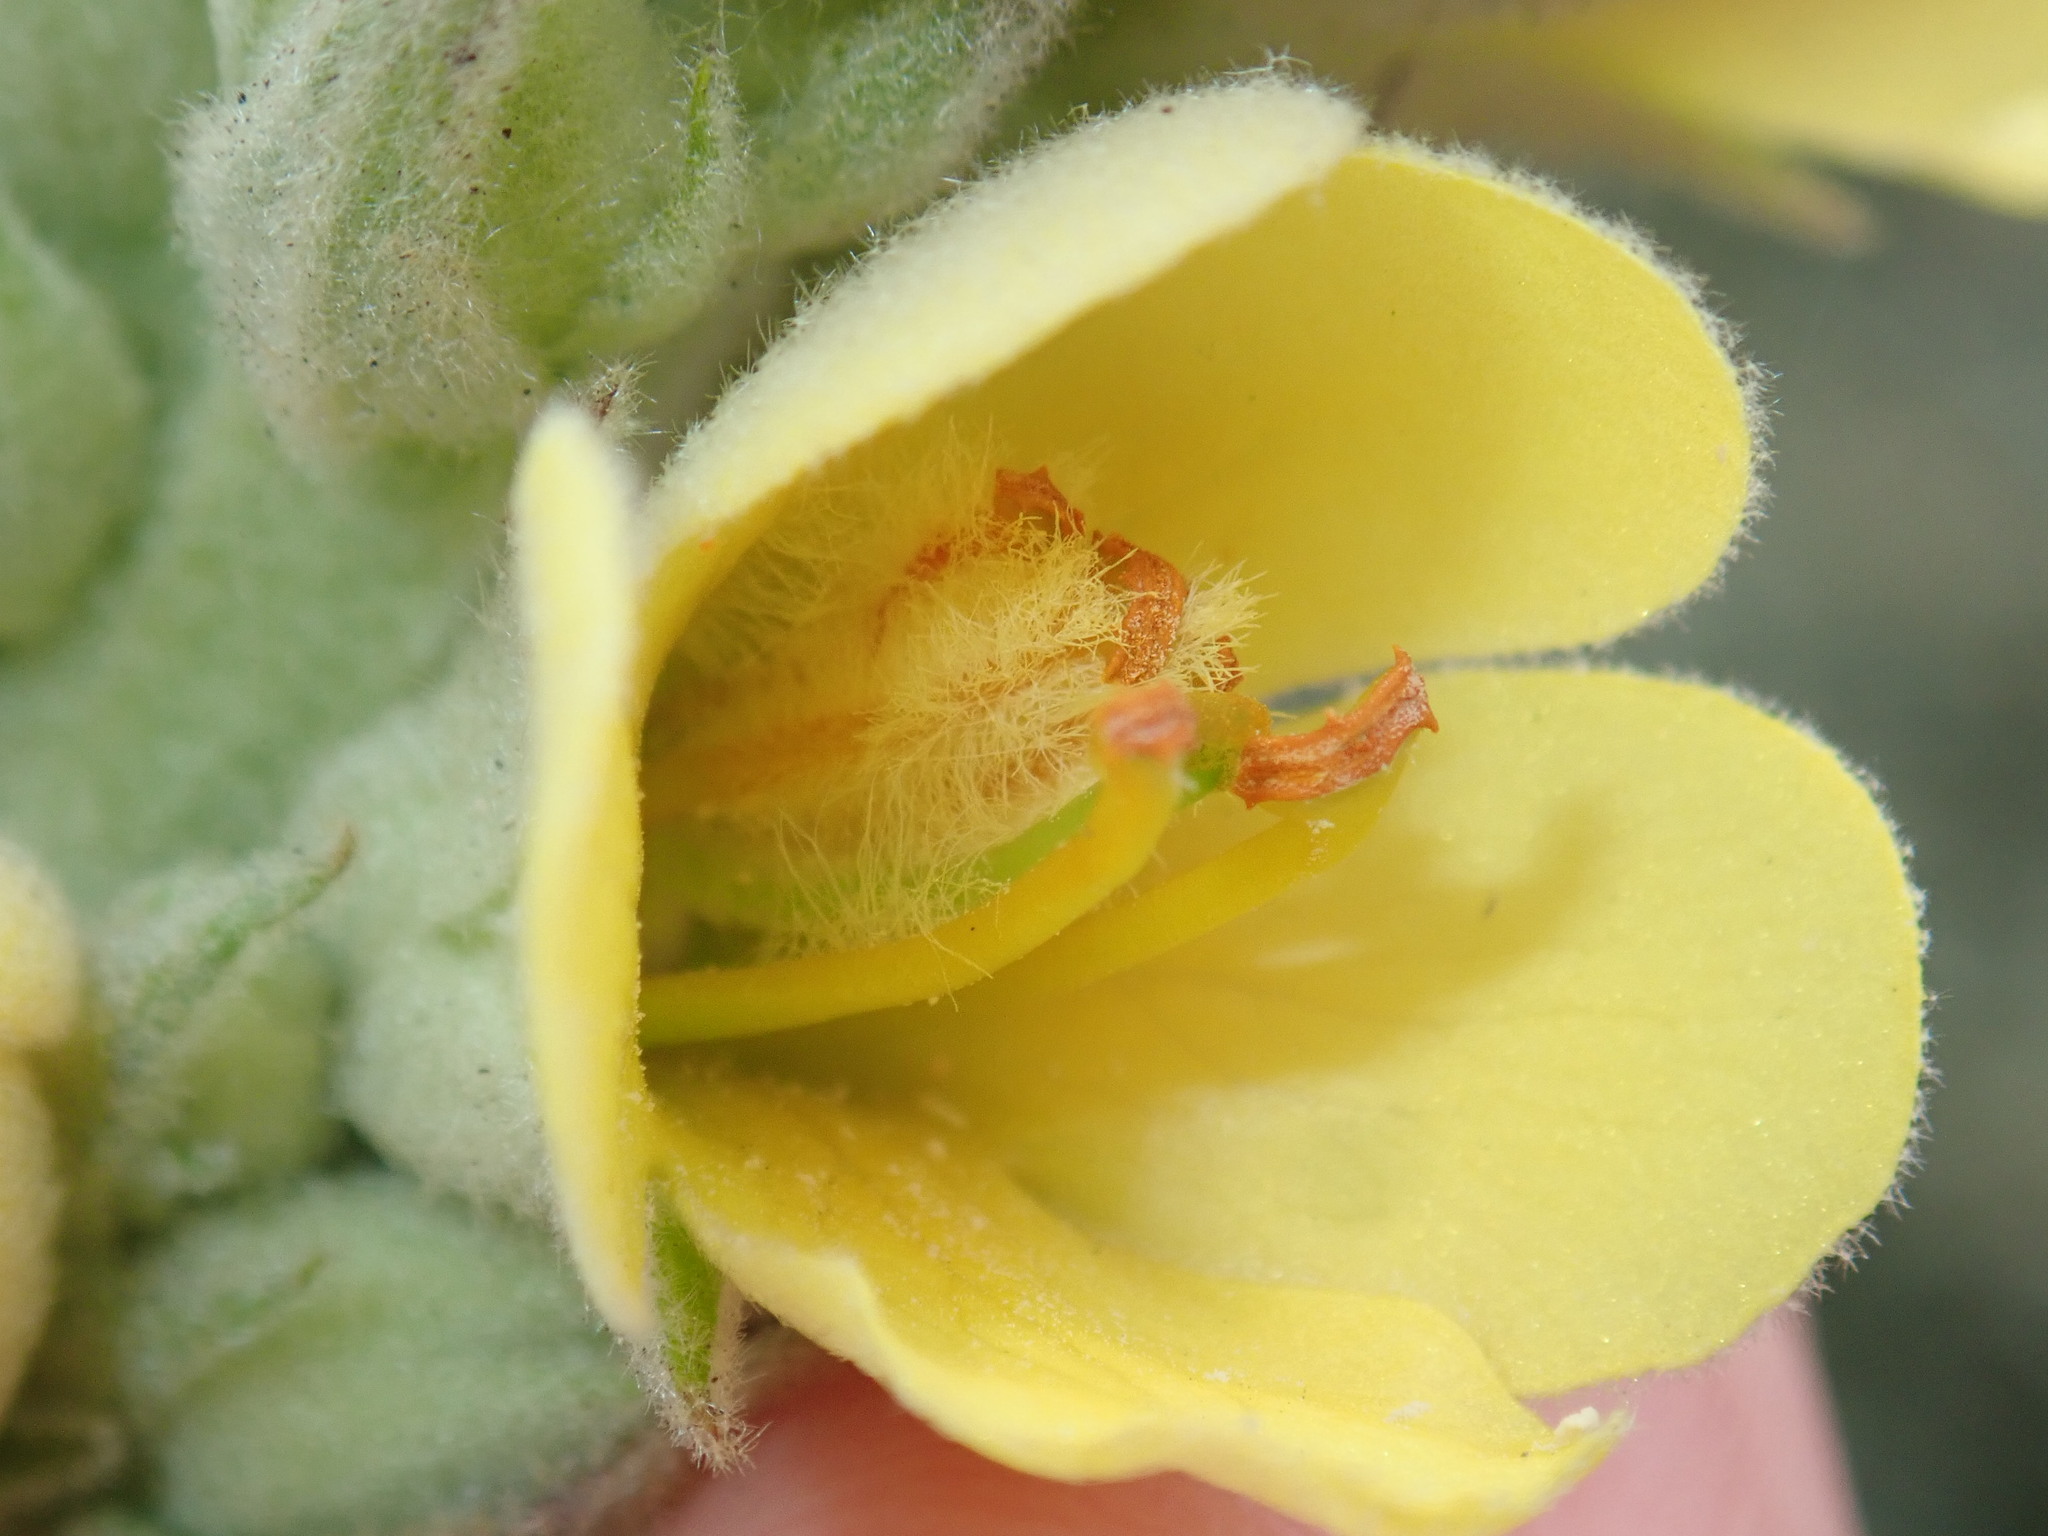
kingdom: Plantae
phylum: Tracheophyta
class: Magnoliopsida
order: Lamiales
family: Scrophulariaceae
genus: Verbascum
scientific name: Verbascum thapsus
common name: Common mullein
